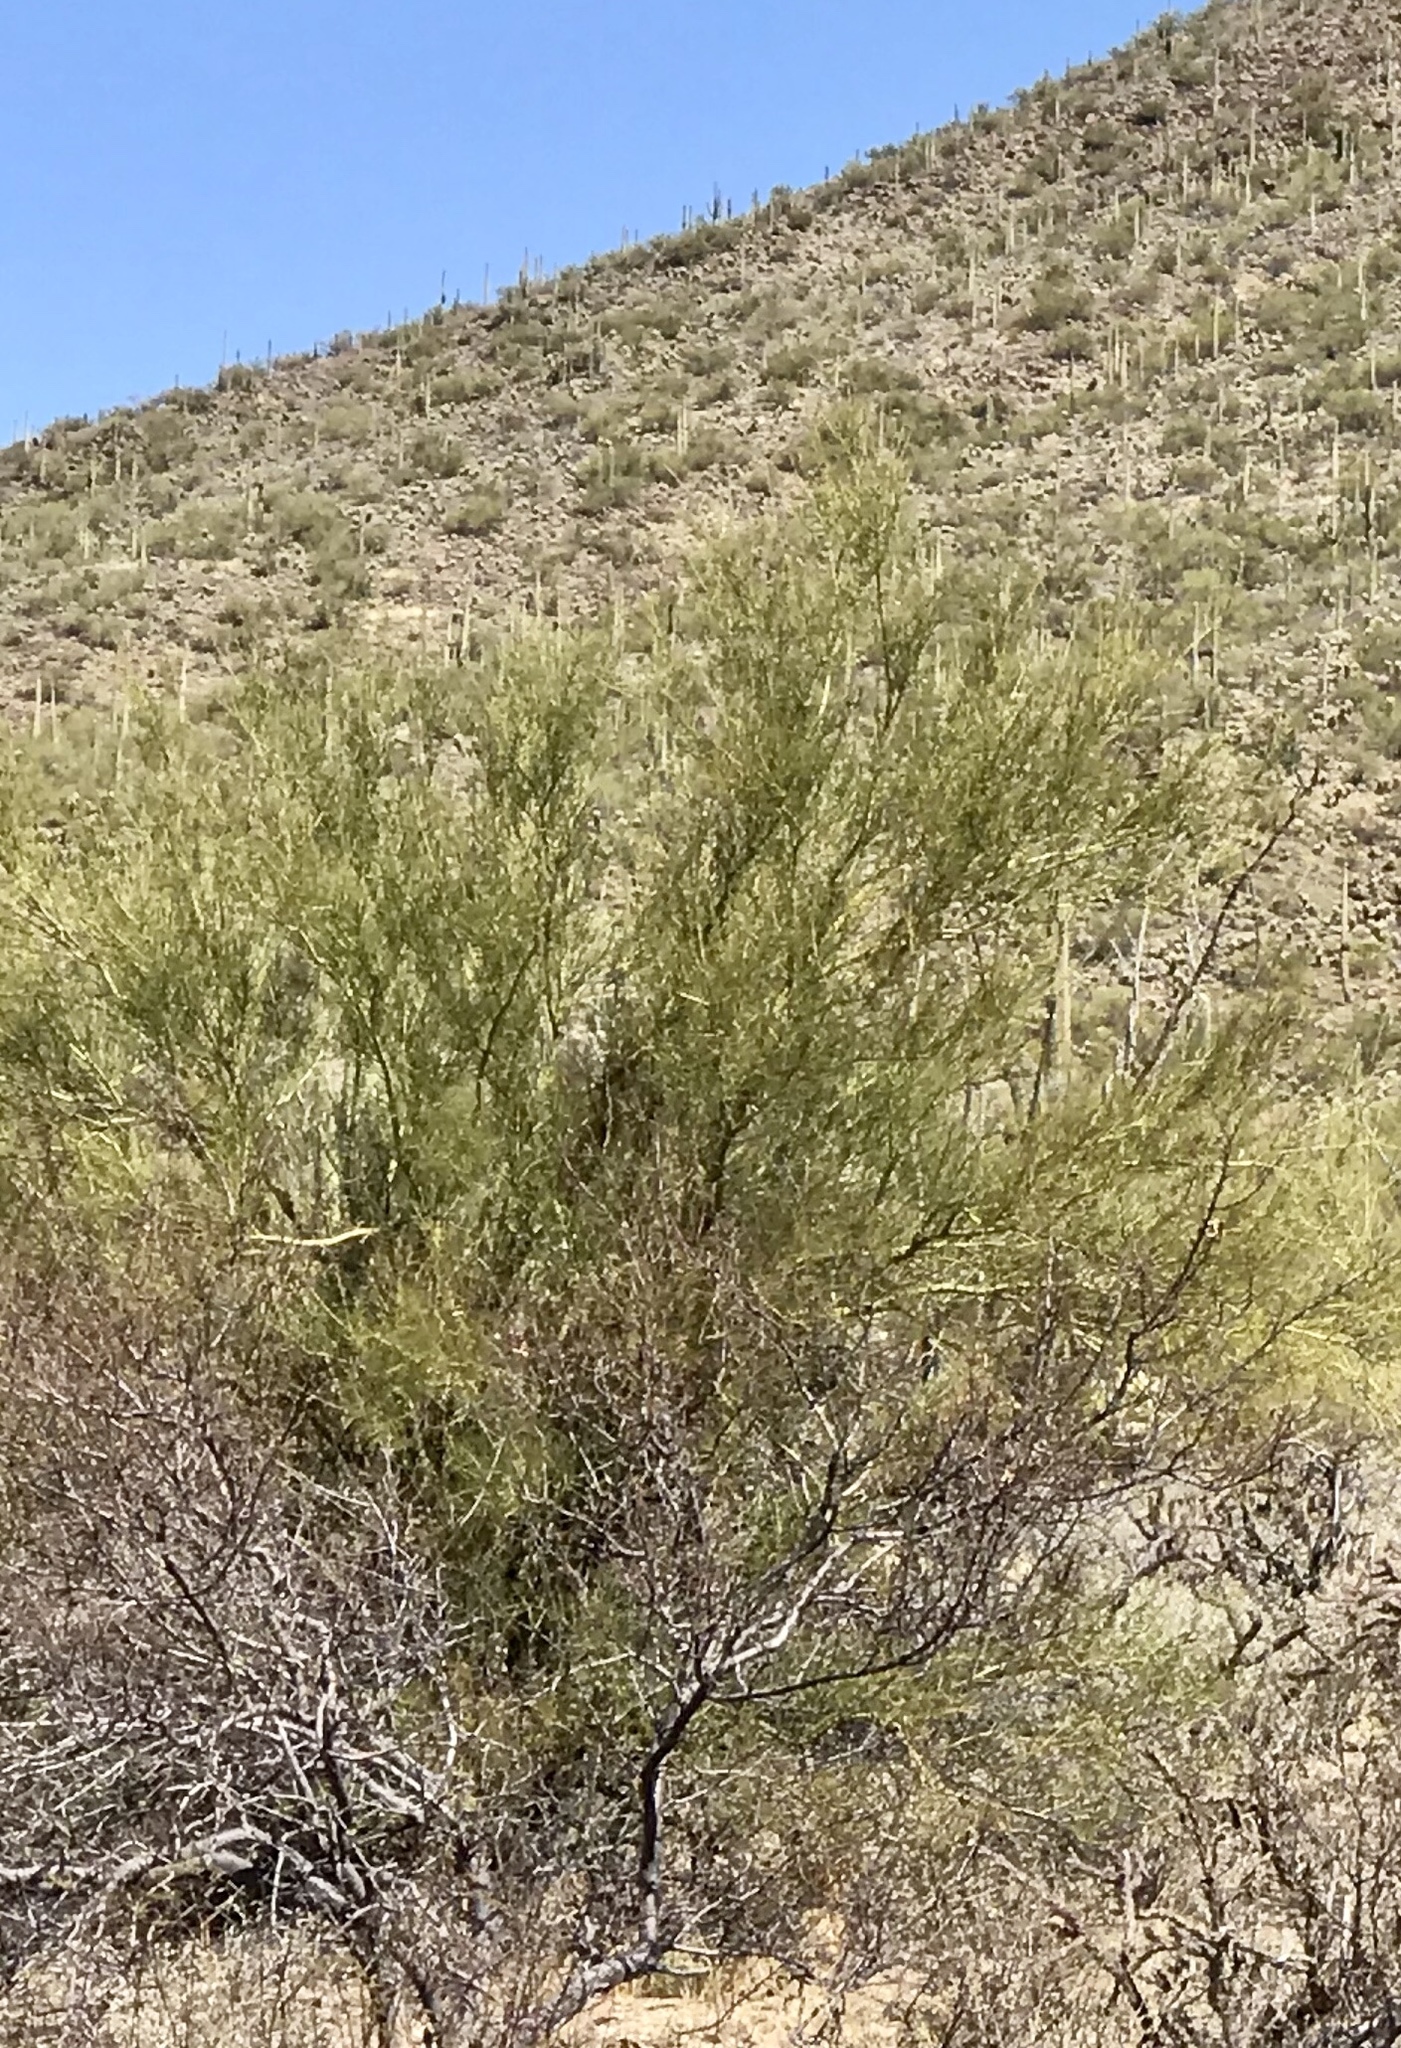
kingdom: Plantae
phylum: Tracheophyta
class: Magnoliopsida
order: Fabales
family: Fabaceae
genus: Parkinsonia
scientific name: Parkinsonia microphylla
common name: Yellow paloverde
